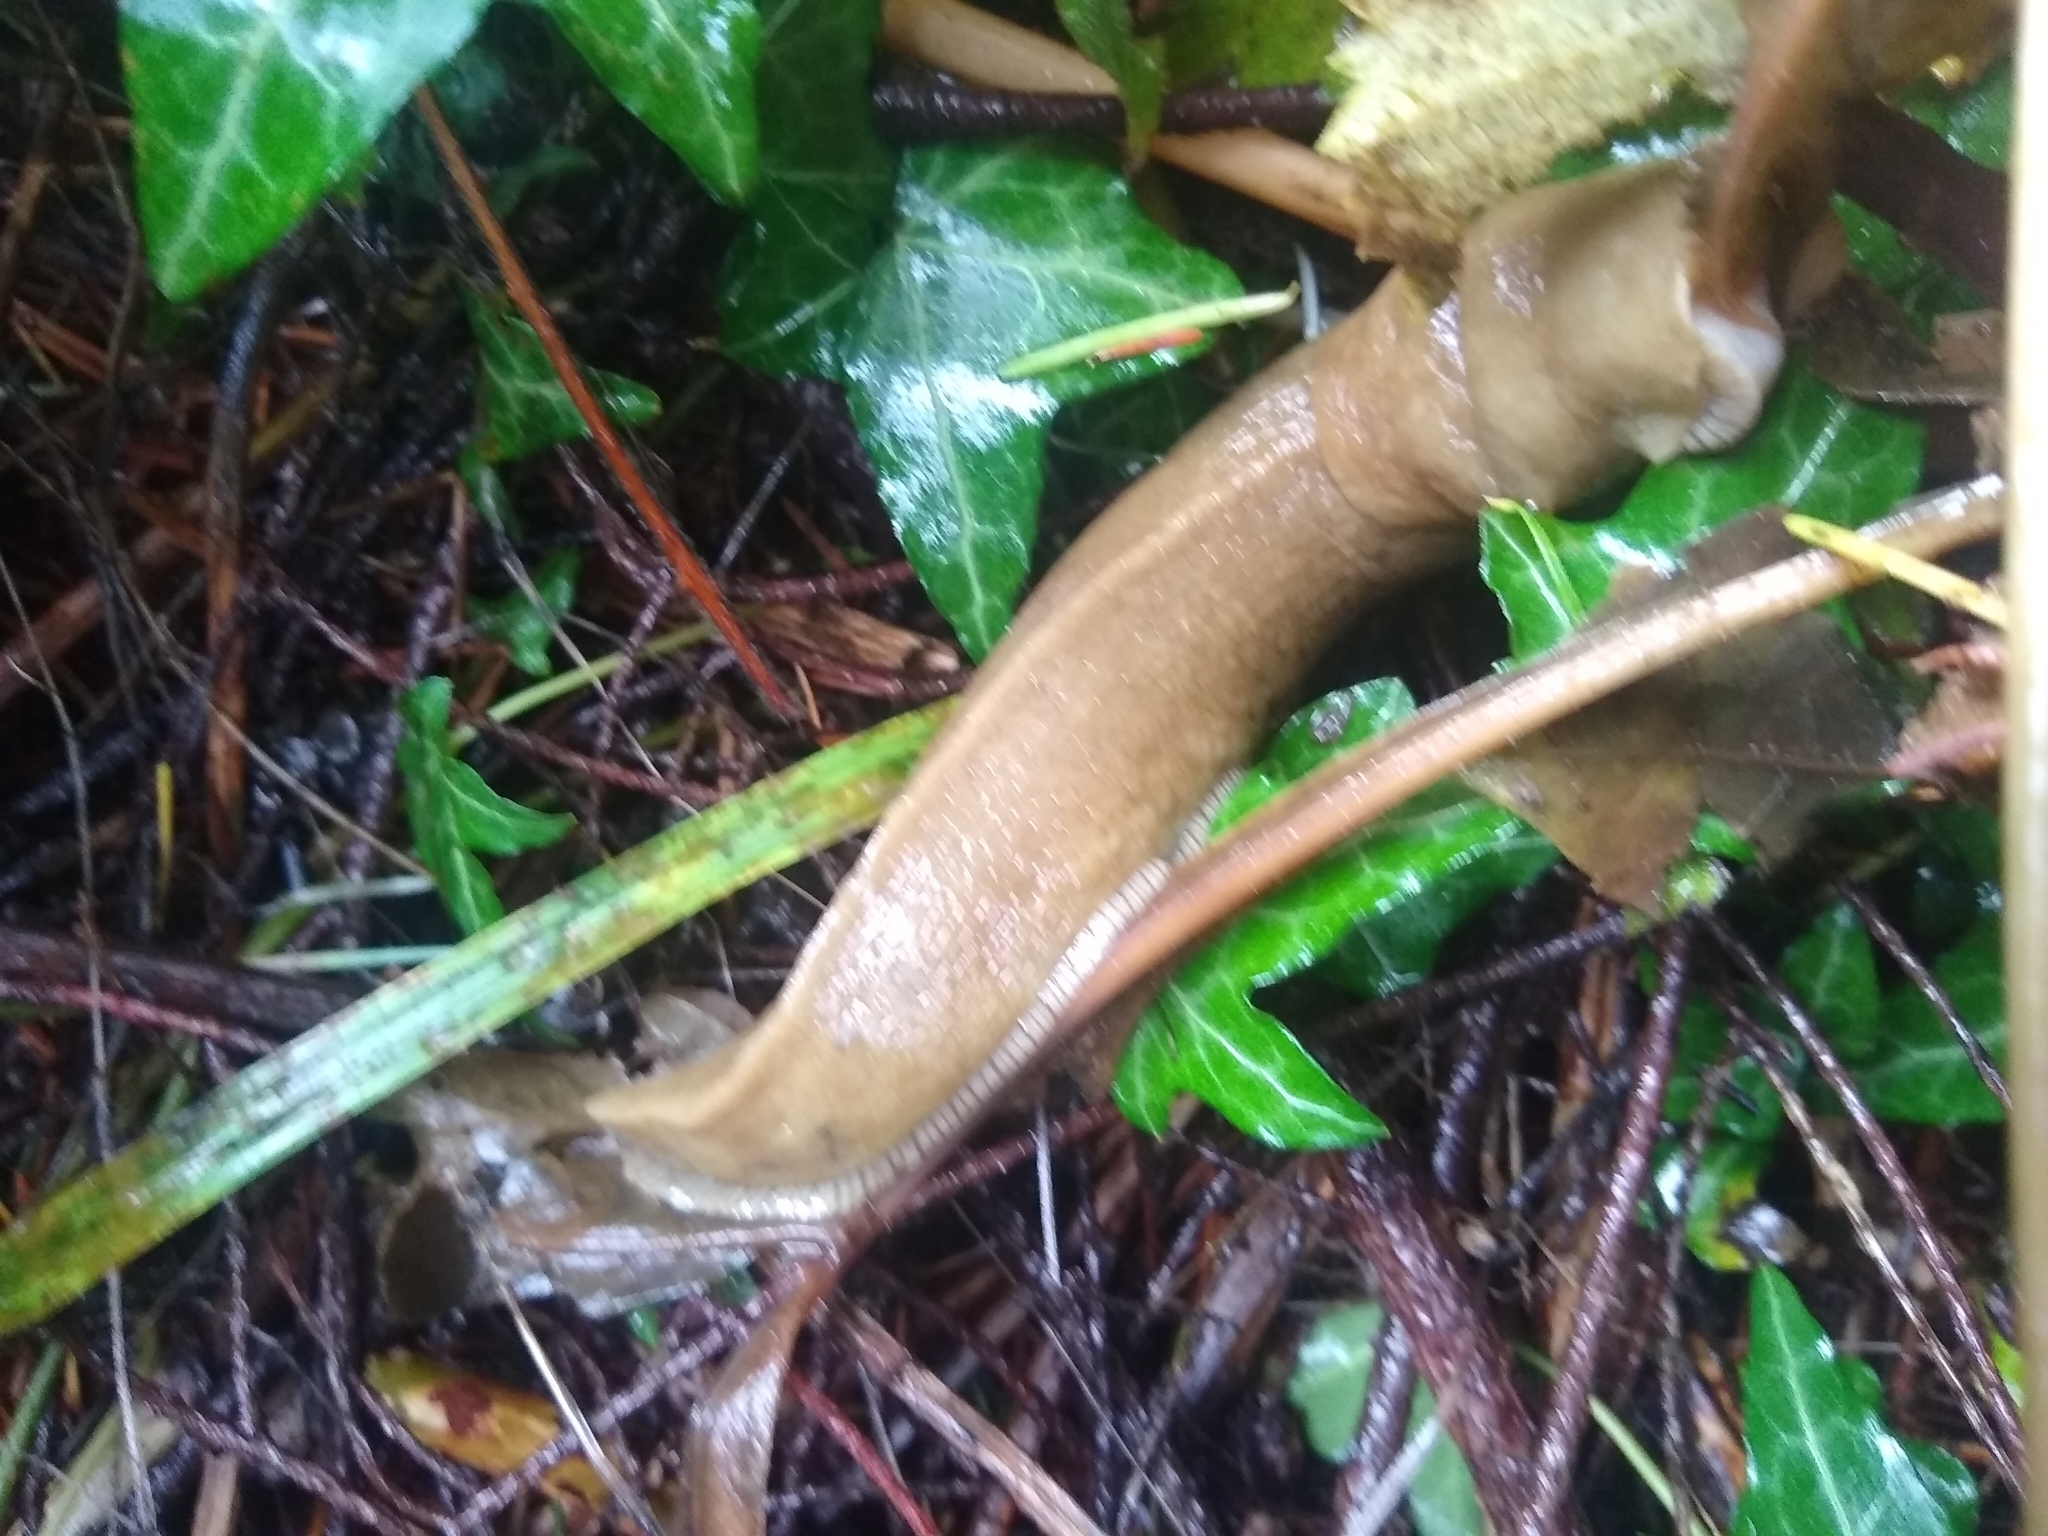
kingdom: Animalia
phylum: Mollusca
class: Gastropoda
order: Stylommatophora
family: Ariolimacidae
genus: Ariolimax
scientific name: Ariolimax columbianus
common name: Pacific banana slug
